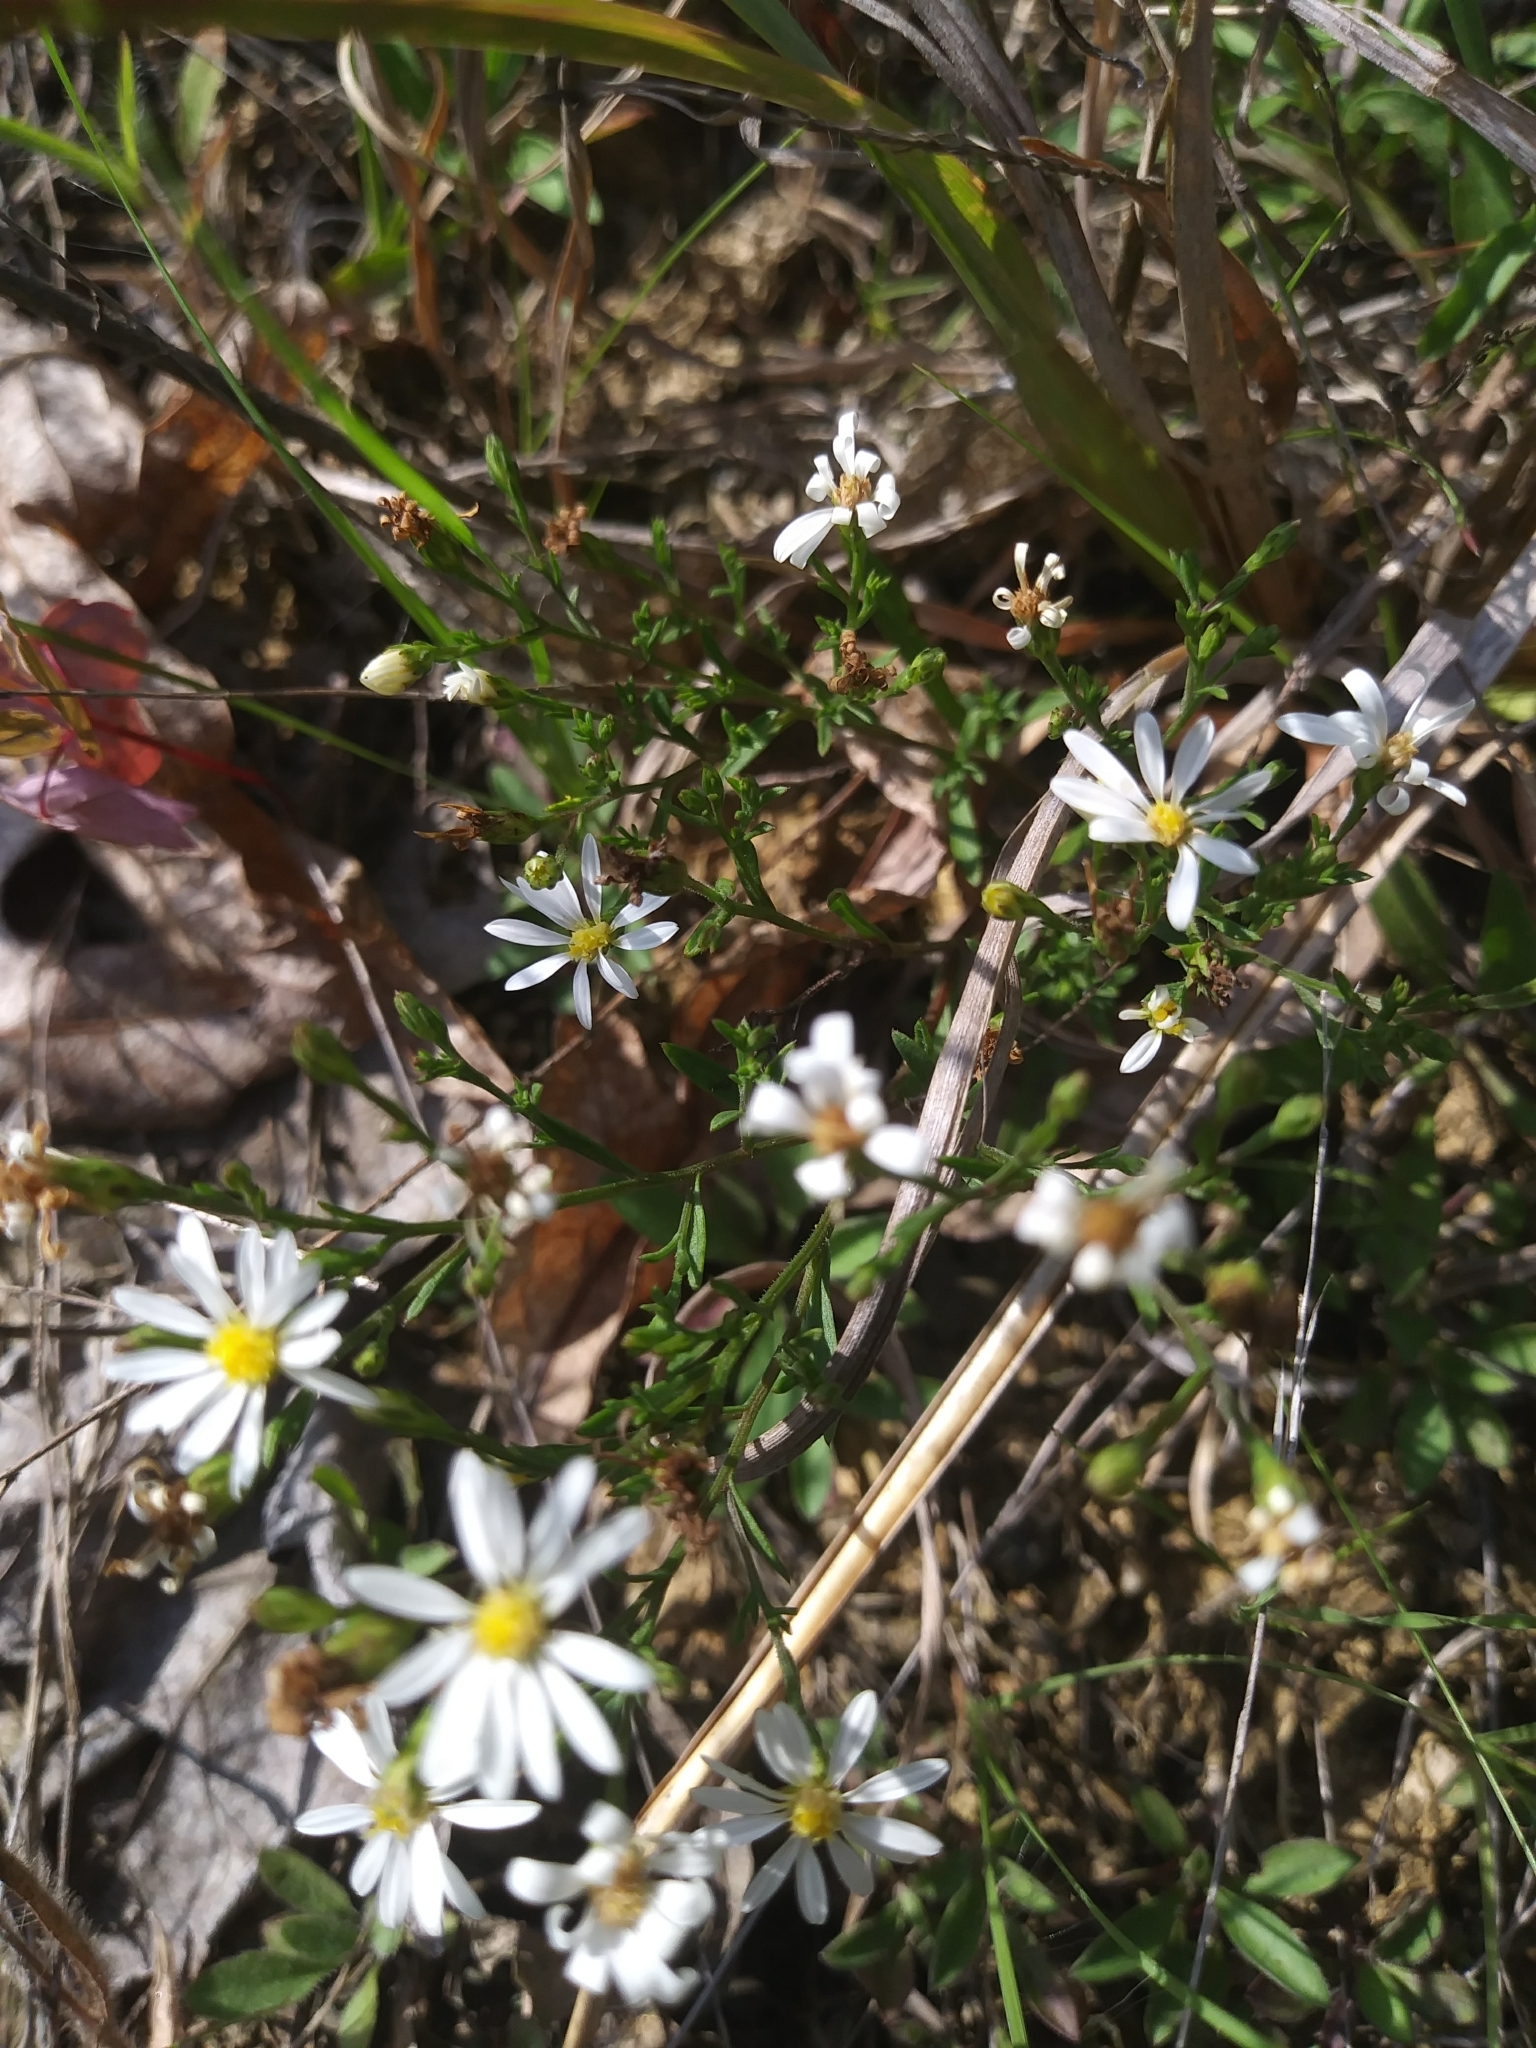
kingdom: Plantae
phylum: Tracheophyta
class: Magnoliopsida
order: Asterales
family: Asteraceae
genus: Symphyotrichum
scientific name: Symphyotrichum depauperatum
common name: Serpentine aster
